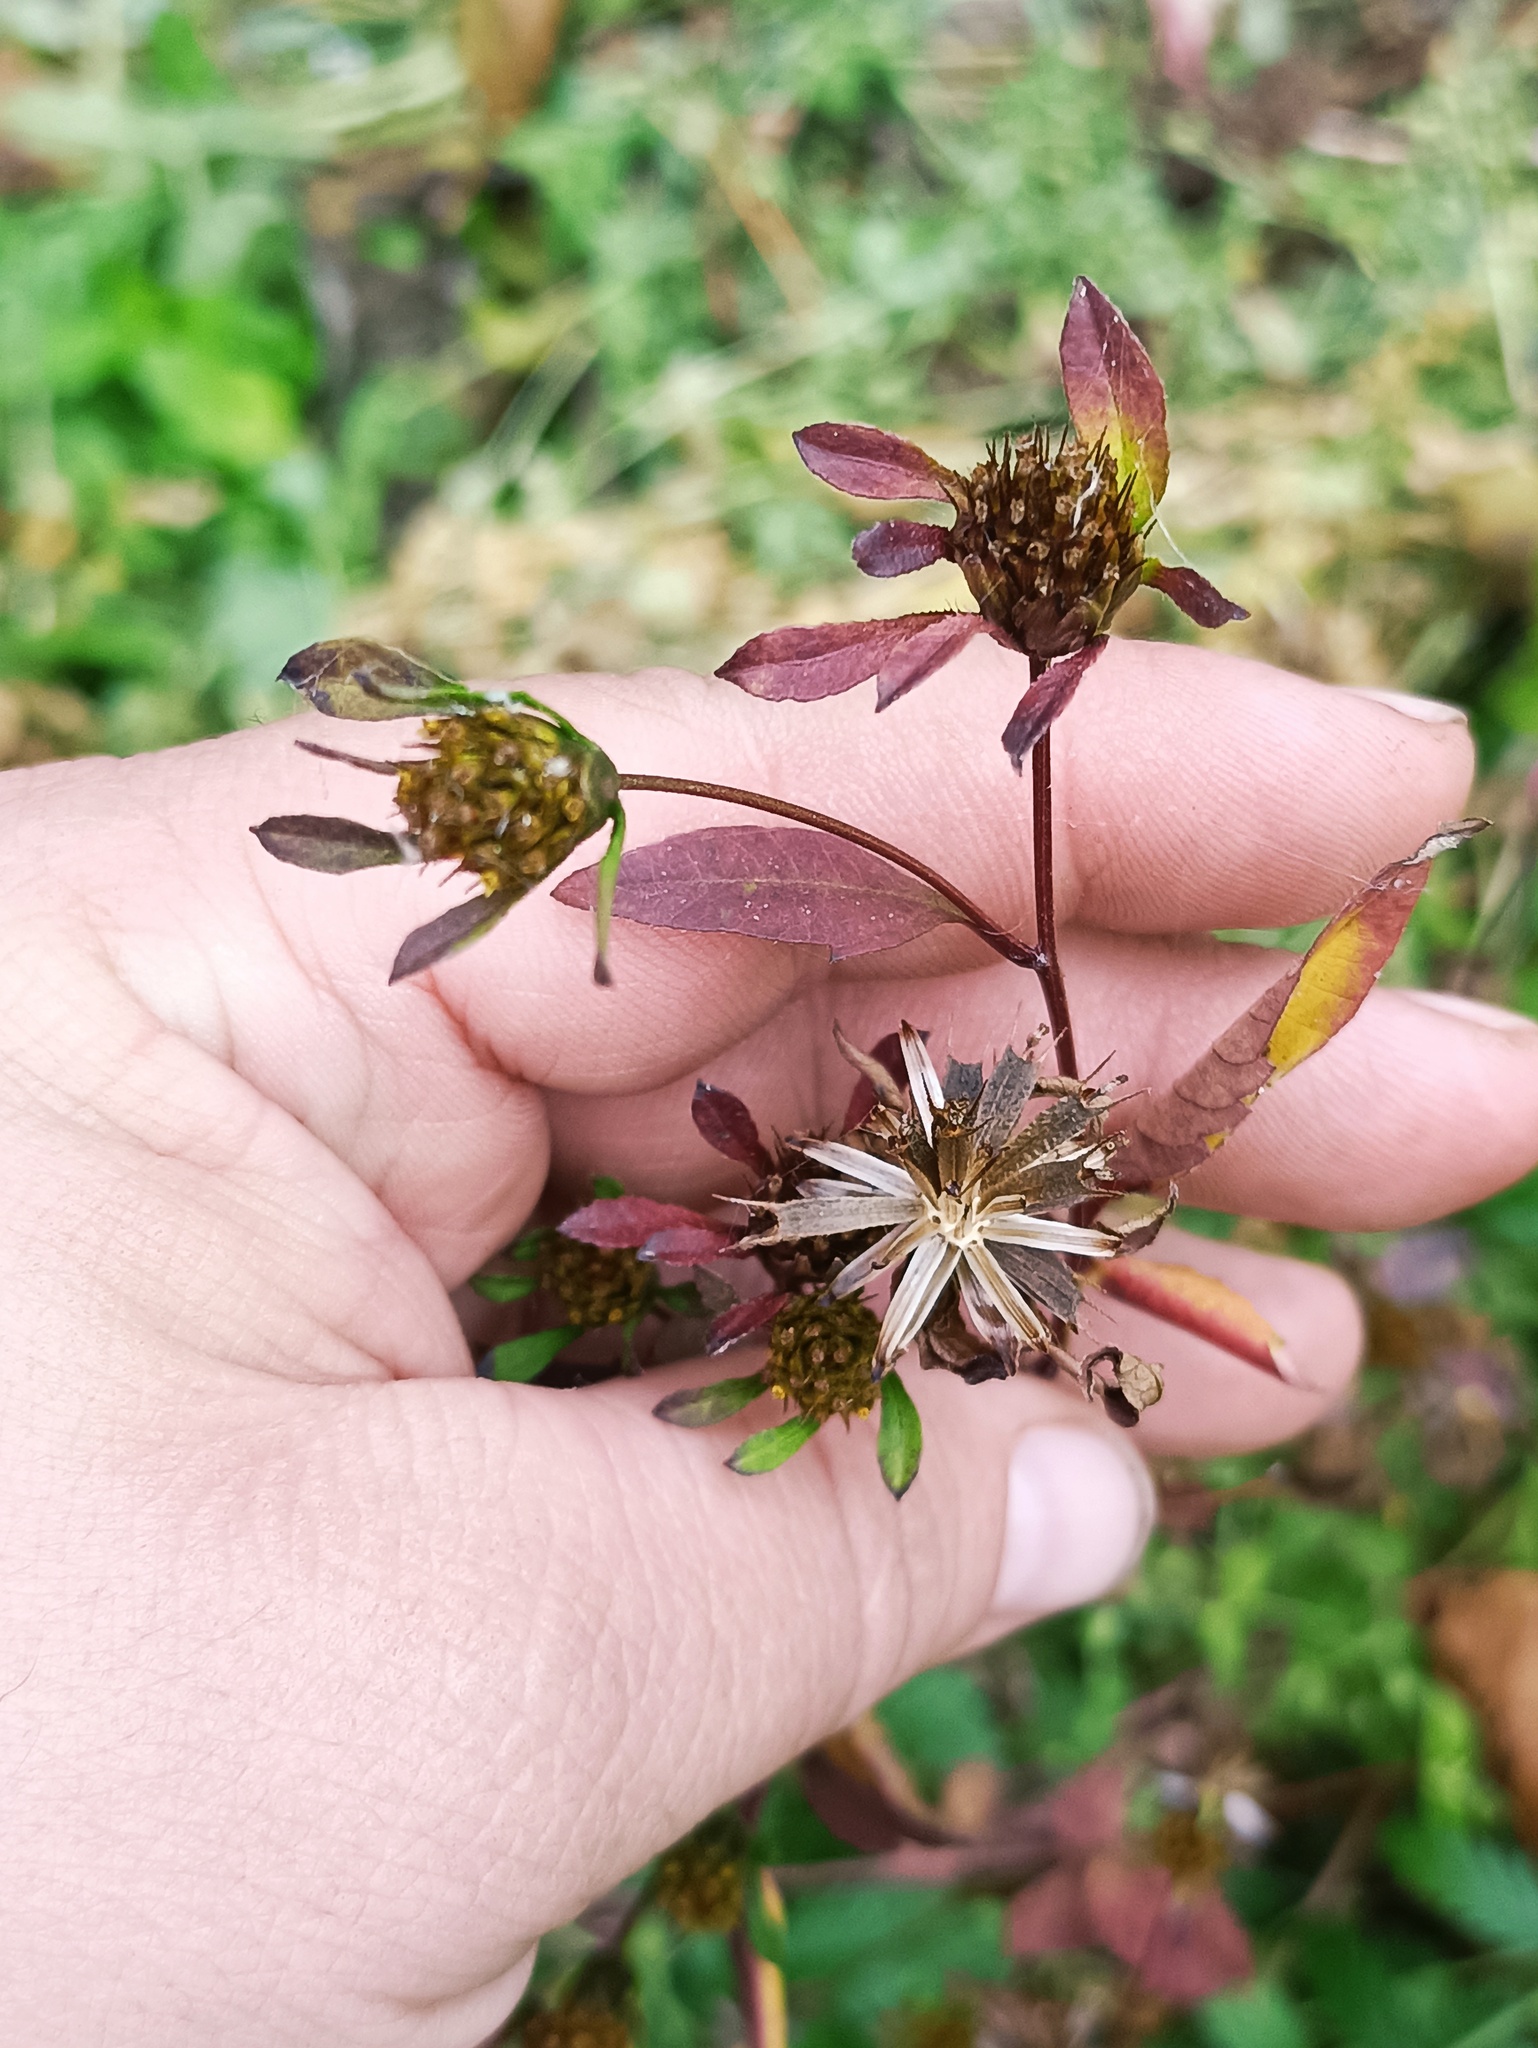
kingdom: Plantae
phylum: Tracheophyta
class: Magnoliopsida
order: Asterales
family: Asteraceae
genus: Bidens
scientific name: Bidens frondosa
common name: Beggarticks
